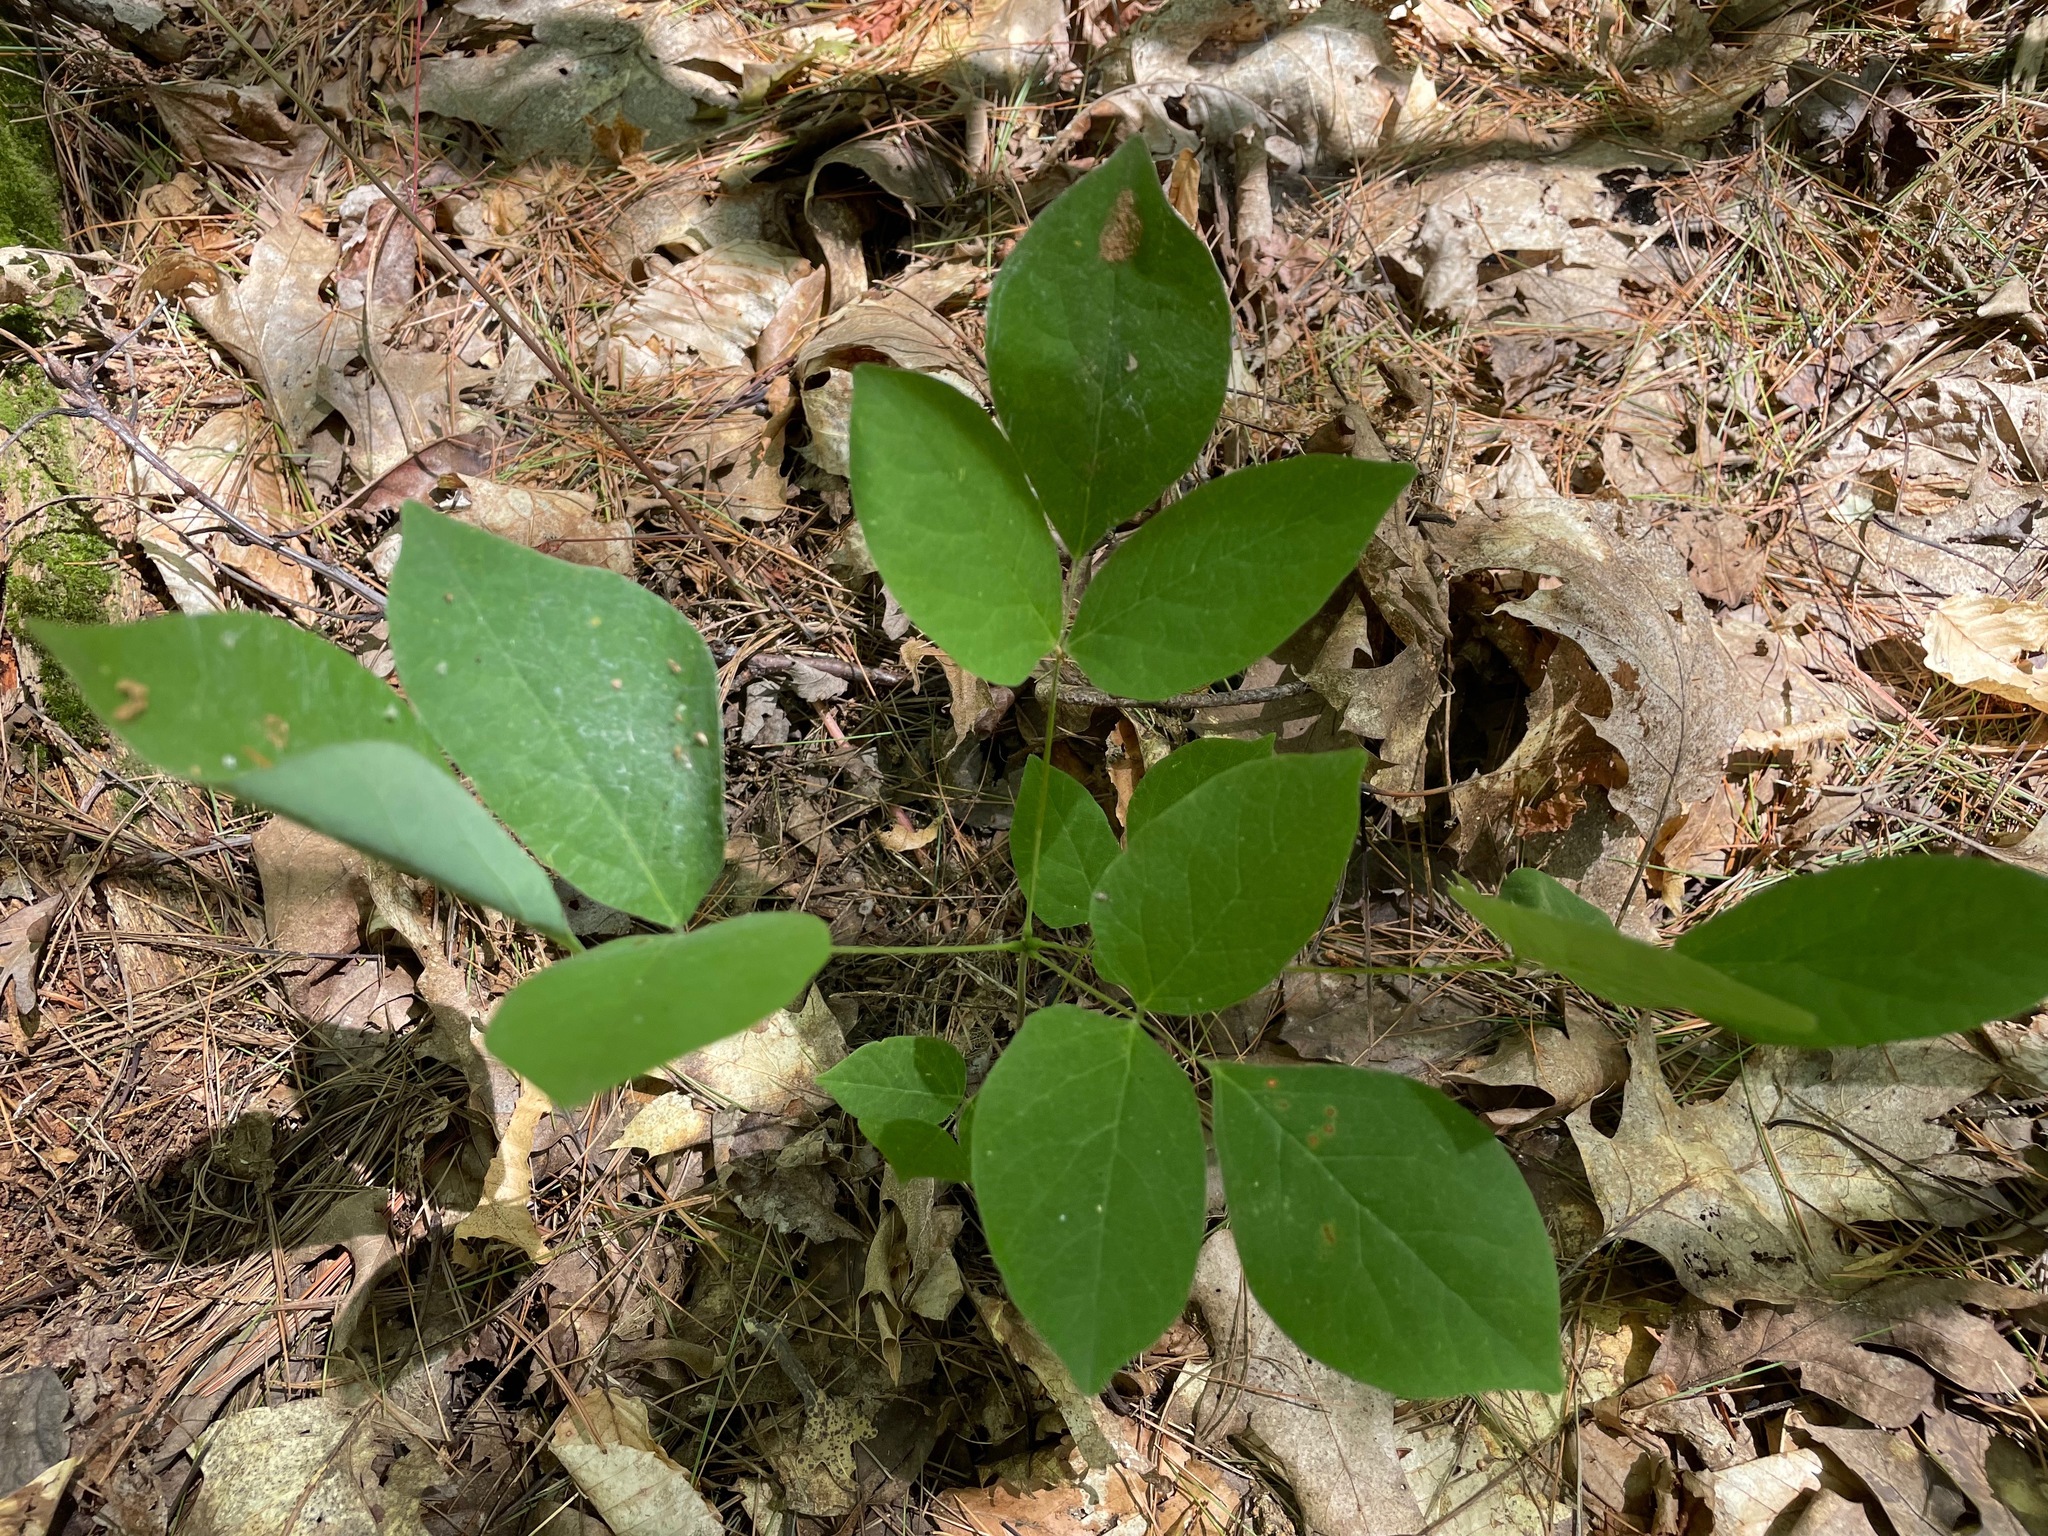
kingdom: Plantae
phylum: Tracheophyta
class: Magnoliopsida
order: Fabales
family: Fabaceae
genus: Hylodesmum
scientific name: Hylodesmum nudiflorum
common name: Bare-stemmed tick-trefoil
